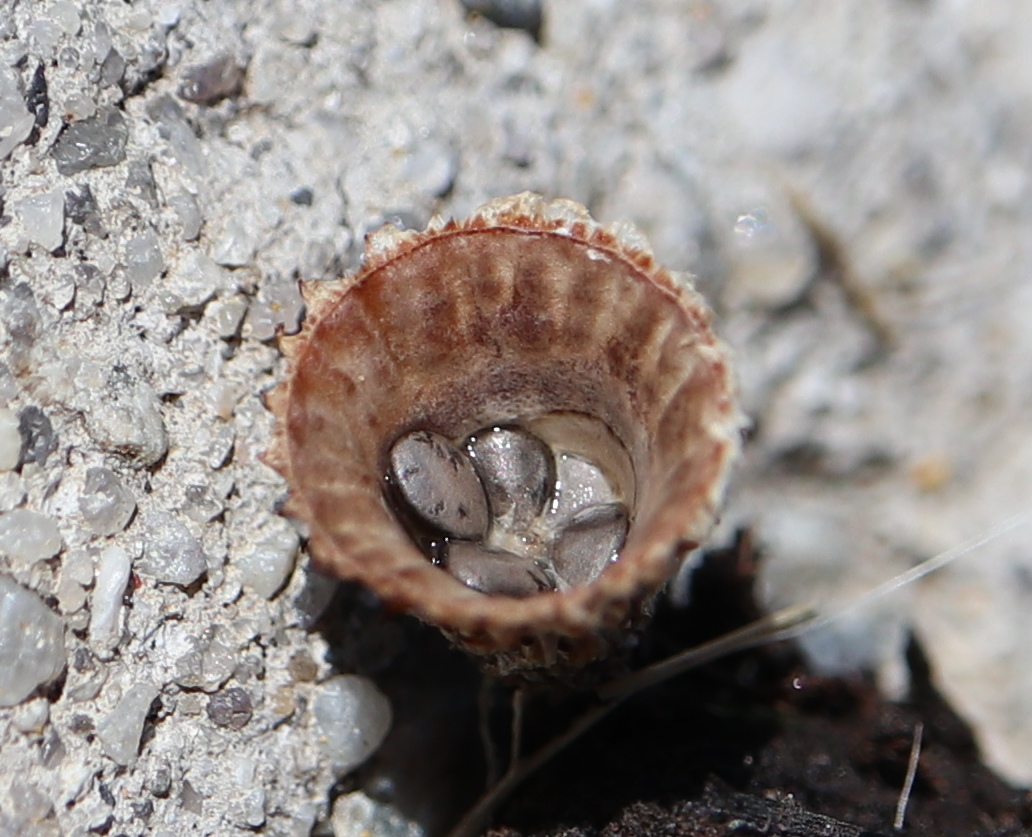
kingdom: Fungi
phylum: Basidiomycota
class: Agaricomycetes
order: Agaricales
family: Agaricaceae
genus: Cyathus
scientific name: Cyathus striatus
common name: Fluted bird's nest
